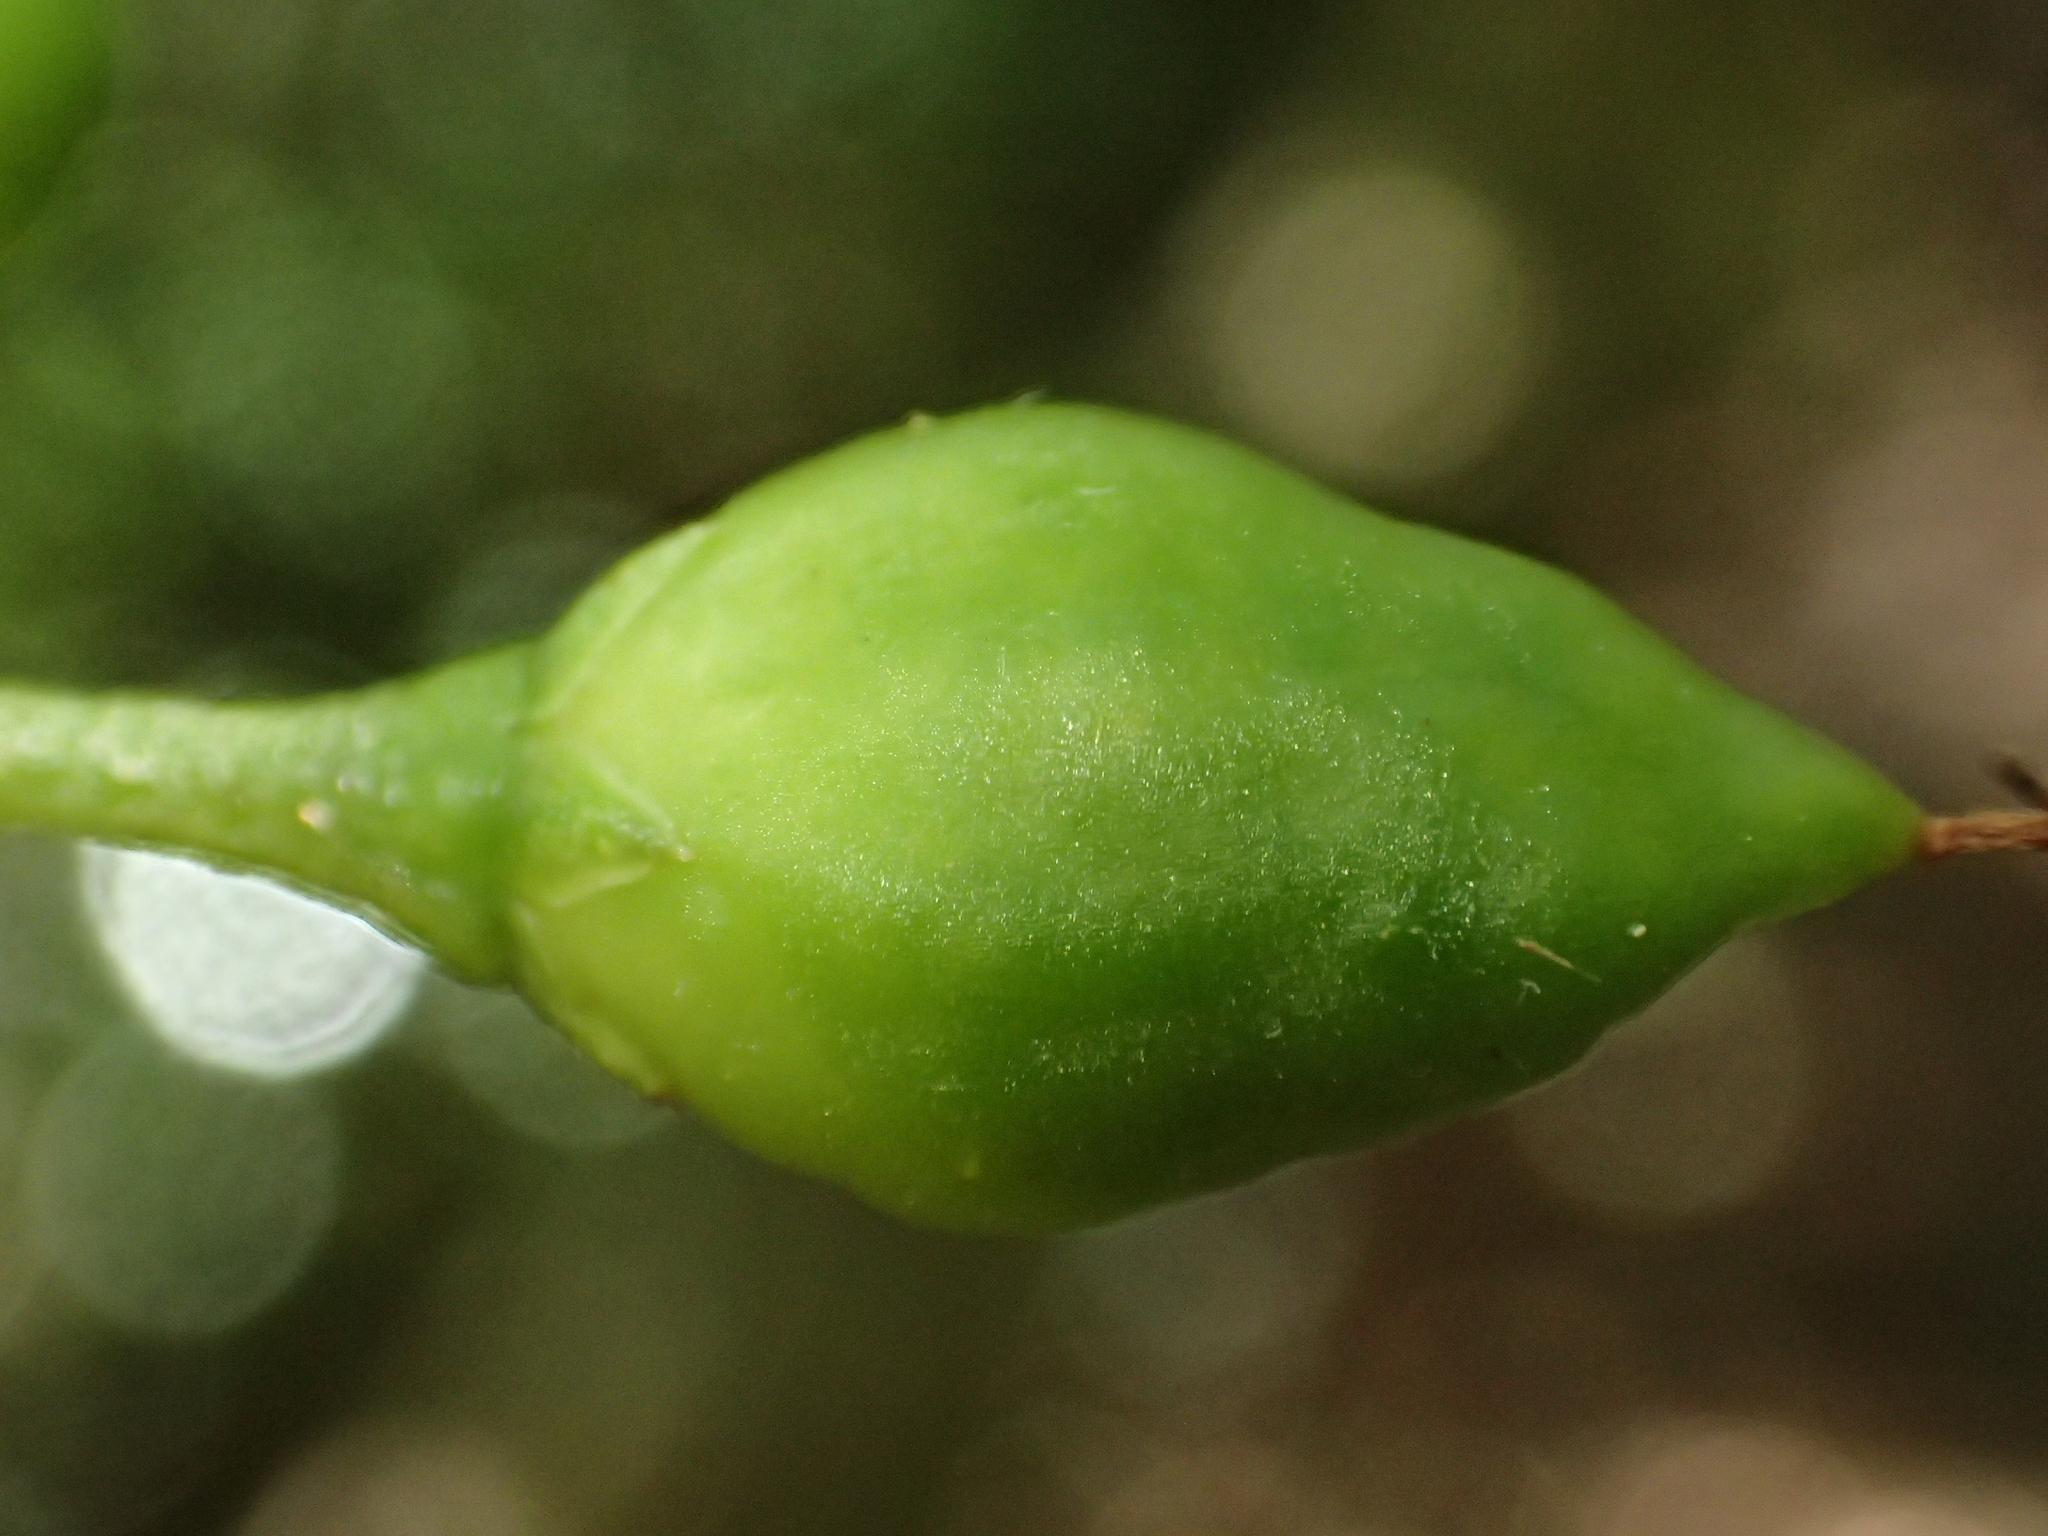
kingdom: Plantae
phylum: Tracheophyta
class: Magnoliopsida
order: Lamiales
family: Scrophulariaceae
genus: Myoporum
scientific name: Myoporum laetum
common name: Ngaio tree
